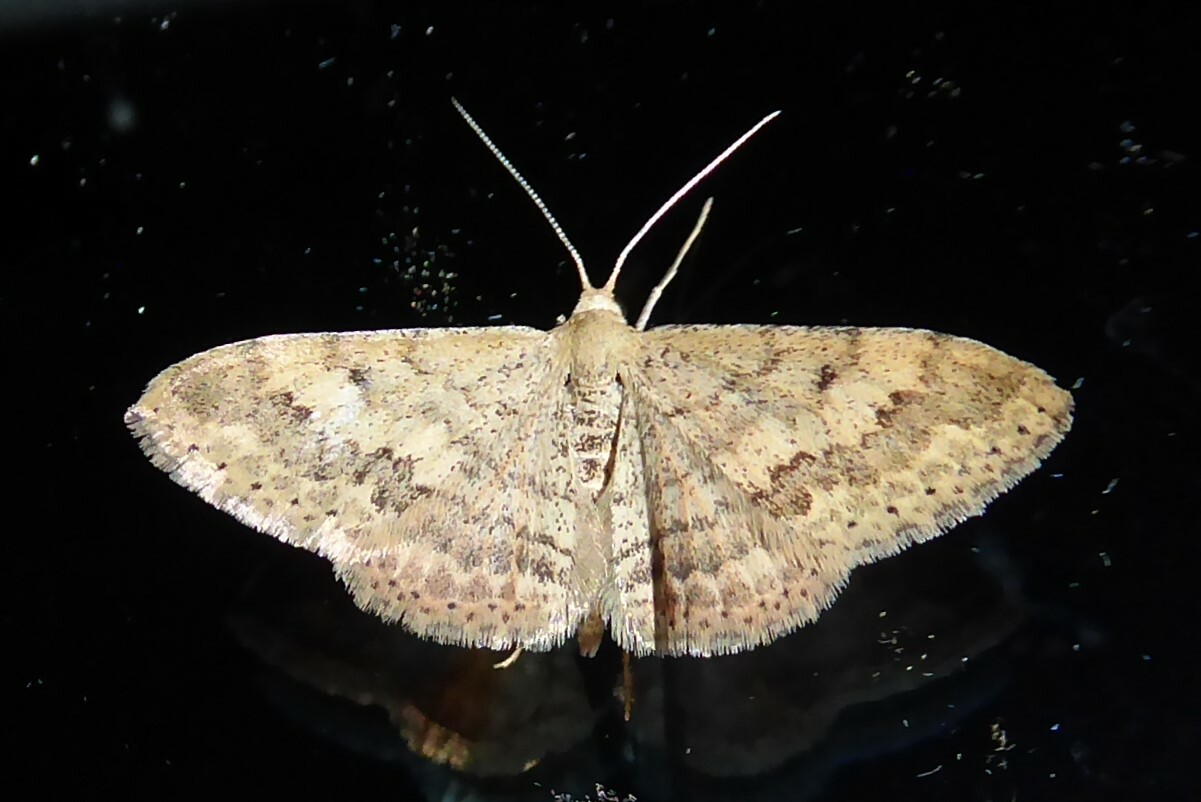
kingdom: Animalia
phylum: Arthropoda
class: Insecta
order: Lepidoptera
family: Geometridae
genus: Scopula
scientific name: Scopula rubraria
